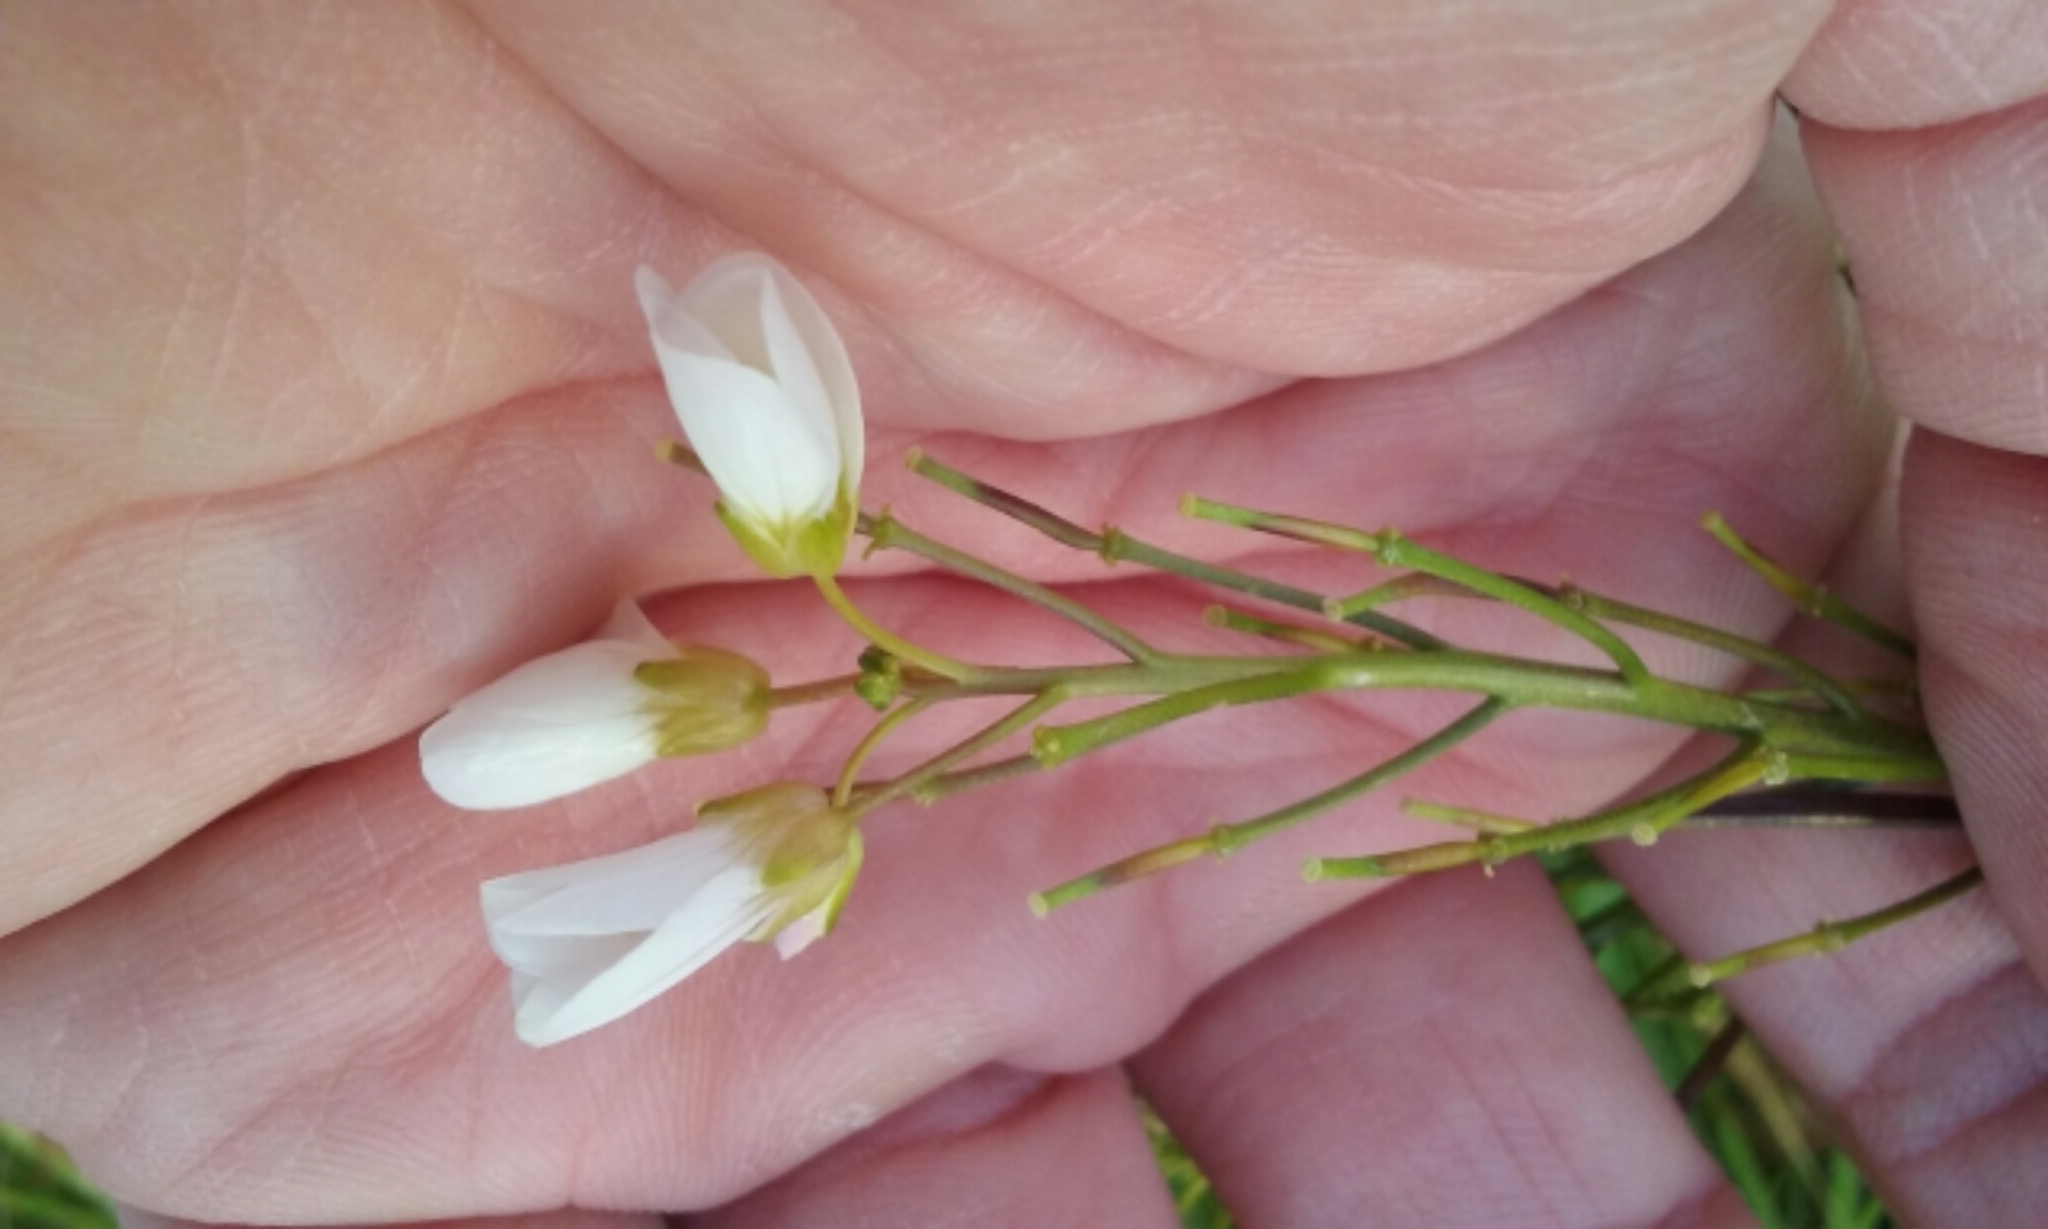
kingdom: Plantae
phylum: Tracheophyta
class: Magnoliopsida
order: Brassicales
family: Brassicaceae
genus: Cardamine
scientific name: Cardamine californica
